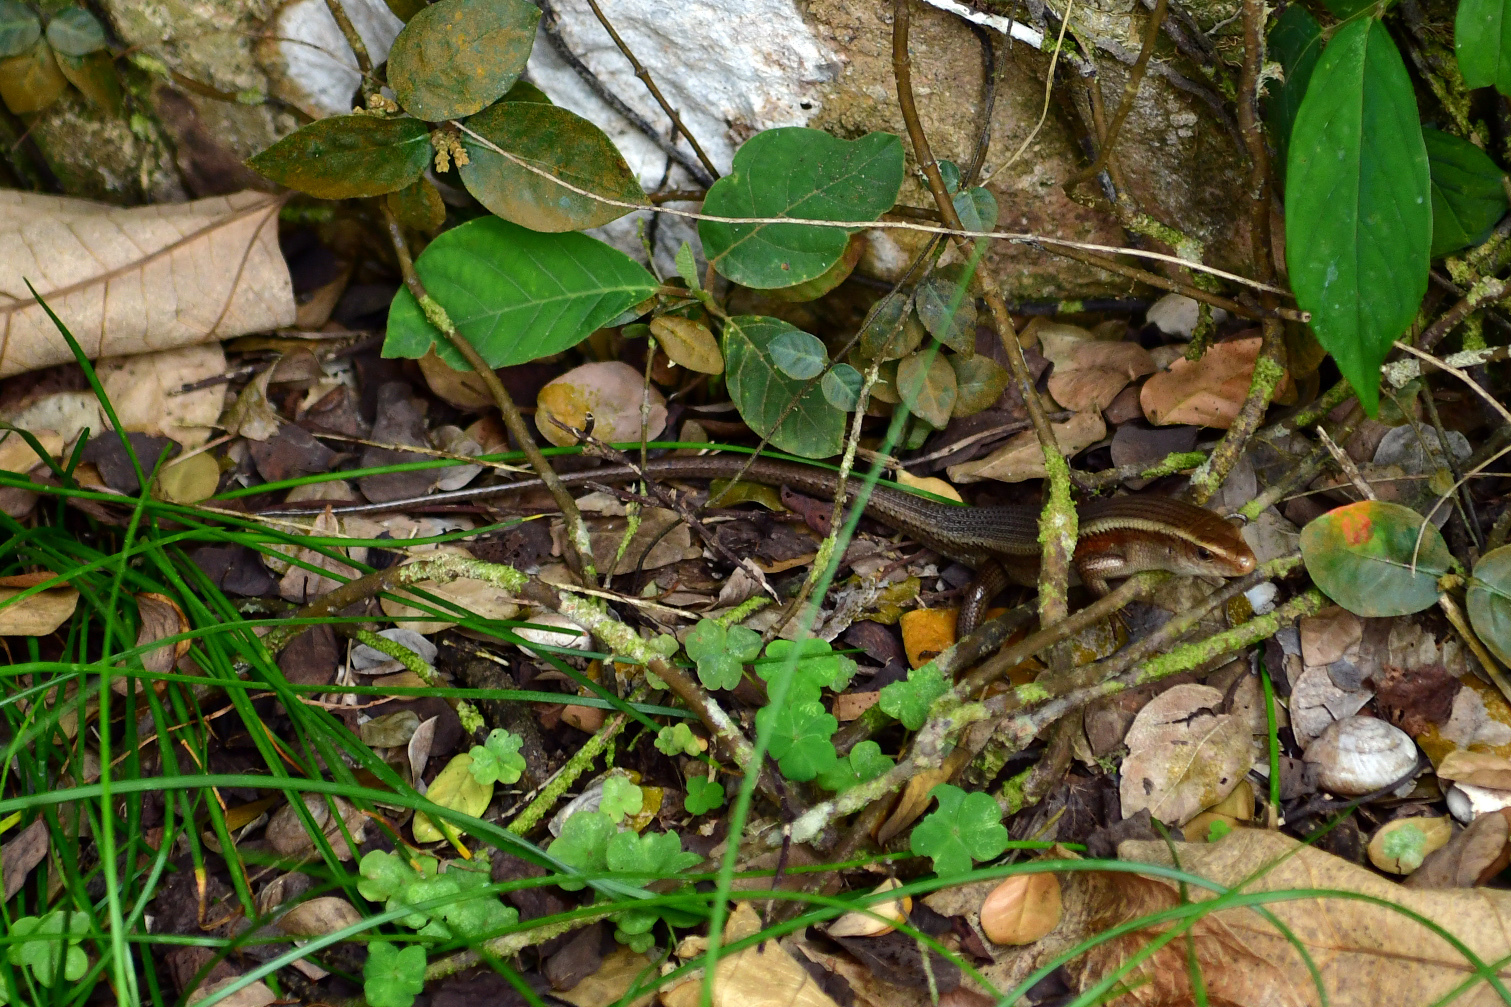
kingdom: Animalia
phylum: Chordata
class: Squamata
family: Scincidae
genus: Eutropis
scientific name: Eutropis multifasciata
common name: Common mabuya
